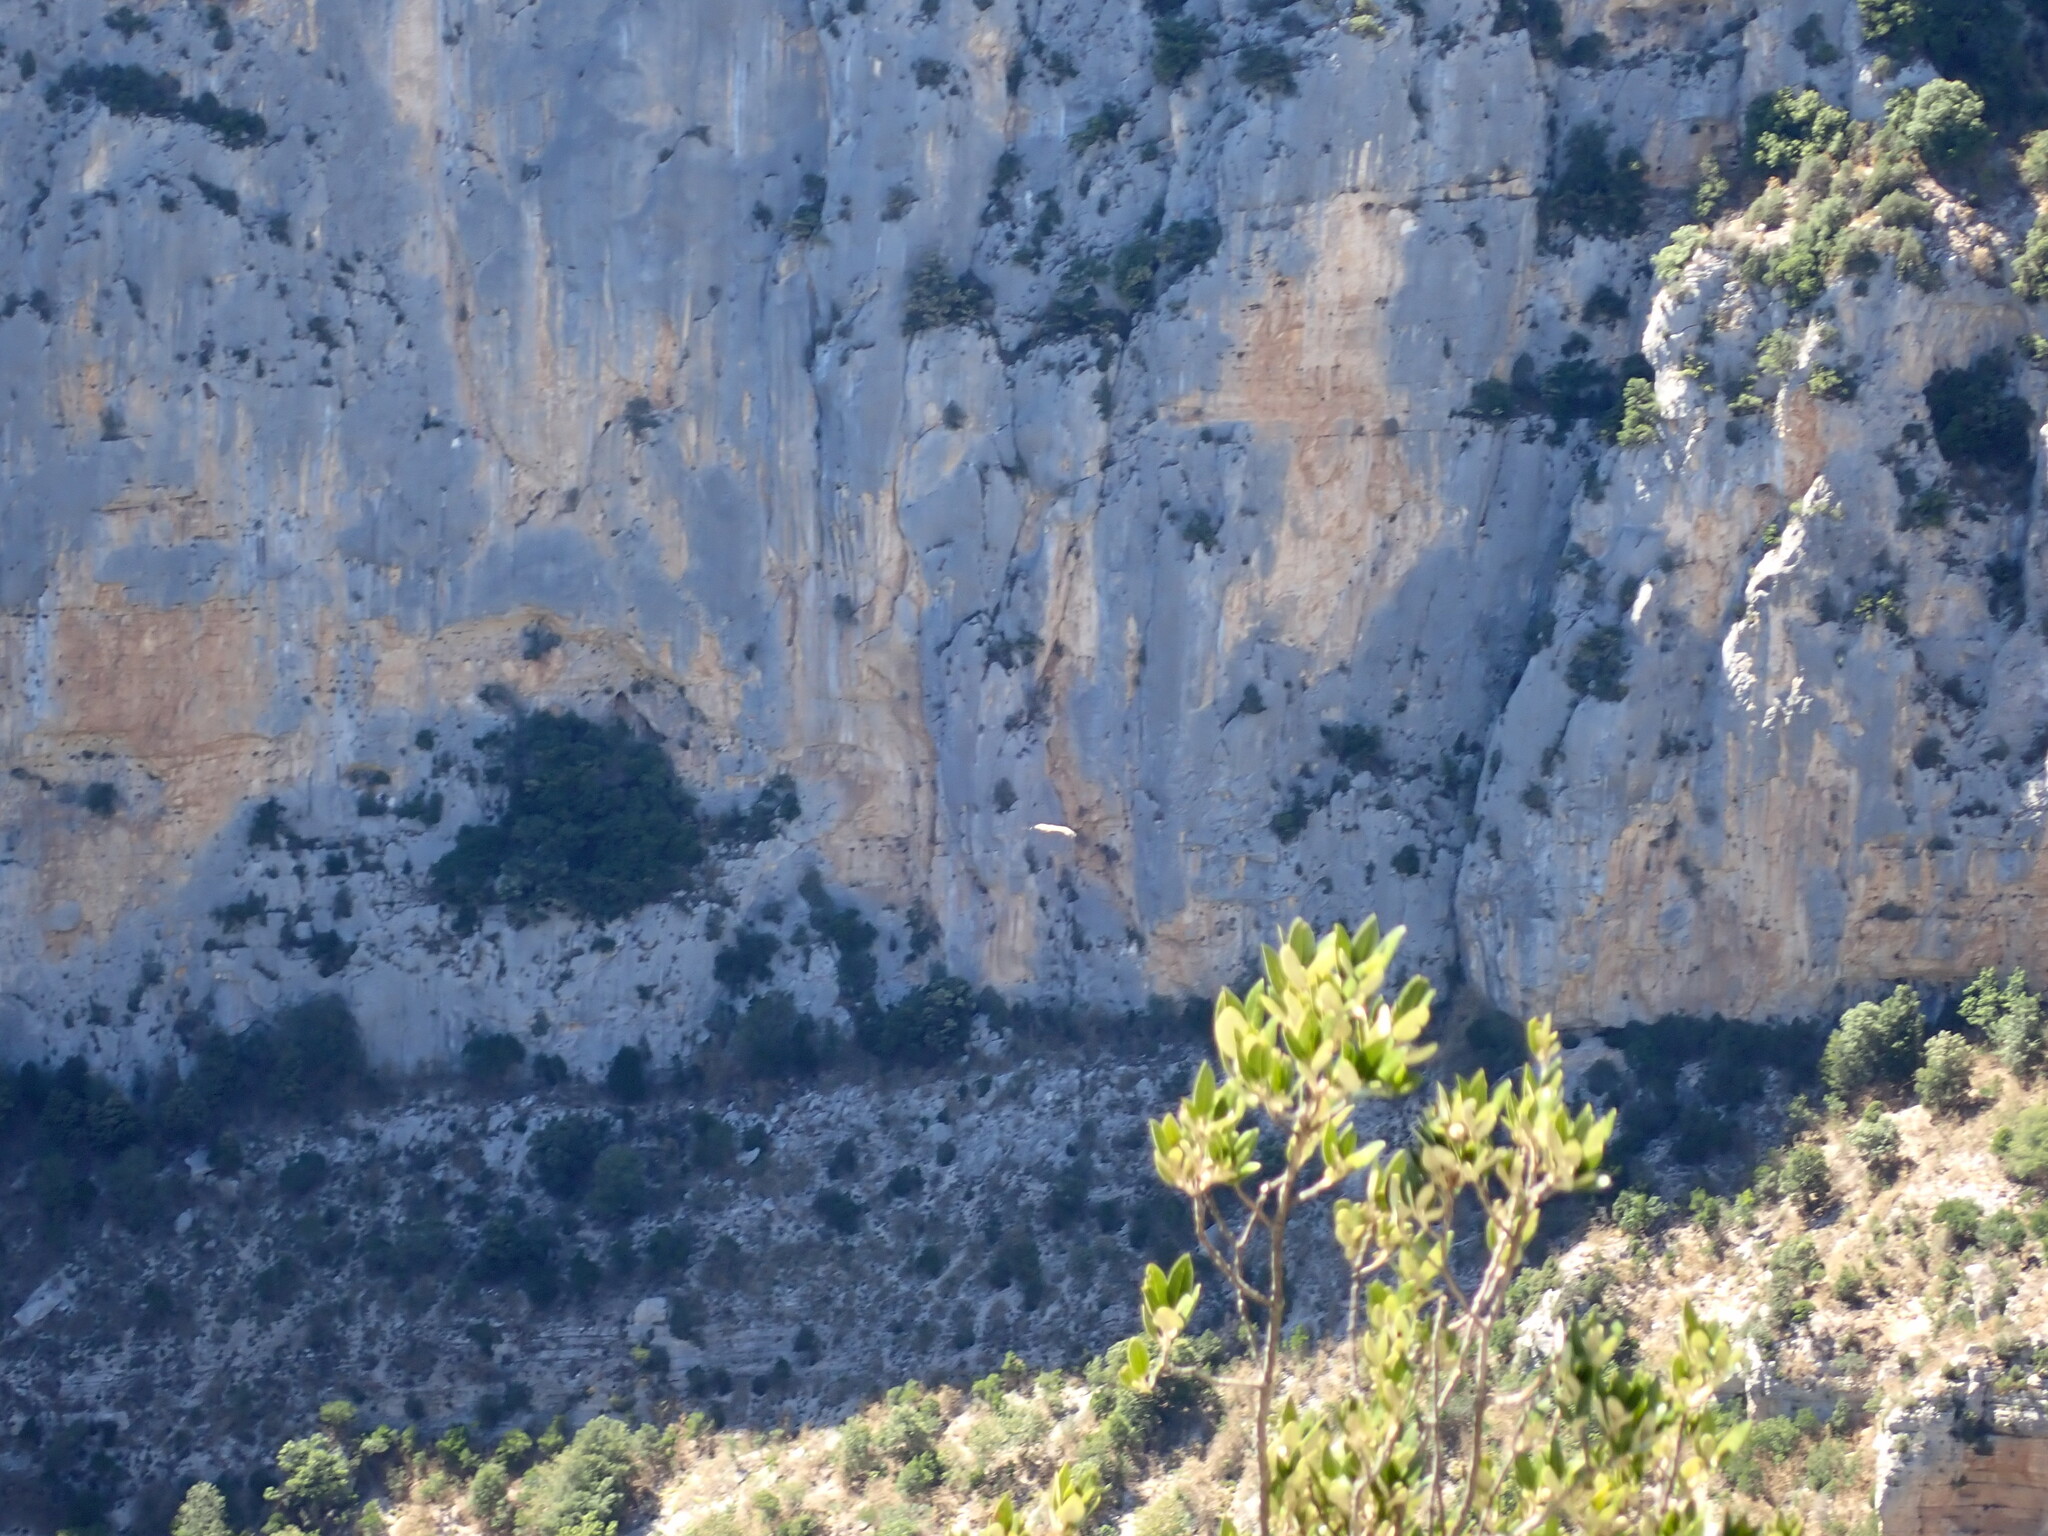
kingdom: Animalia
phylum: Chordata
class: Aves
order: Accipitriformes
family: Accipitridae
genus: Gyps
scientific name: Gyps fulvus
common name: Griffon vulture
